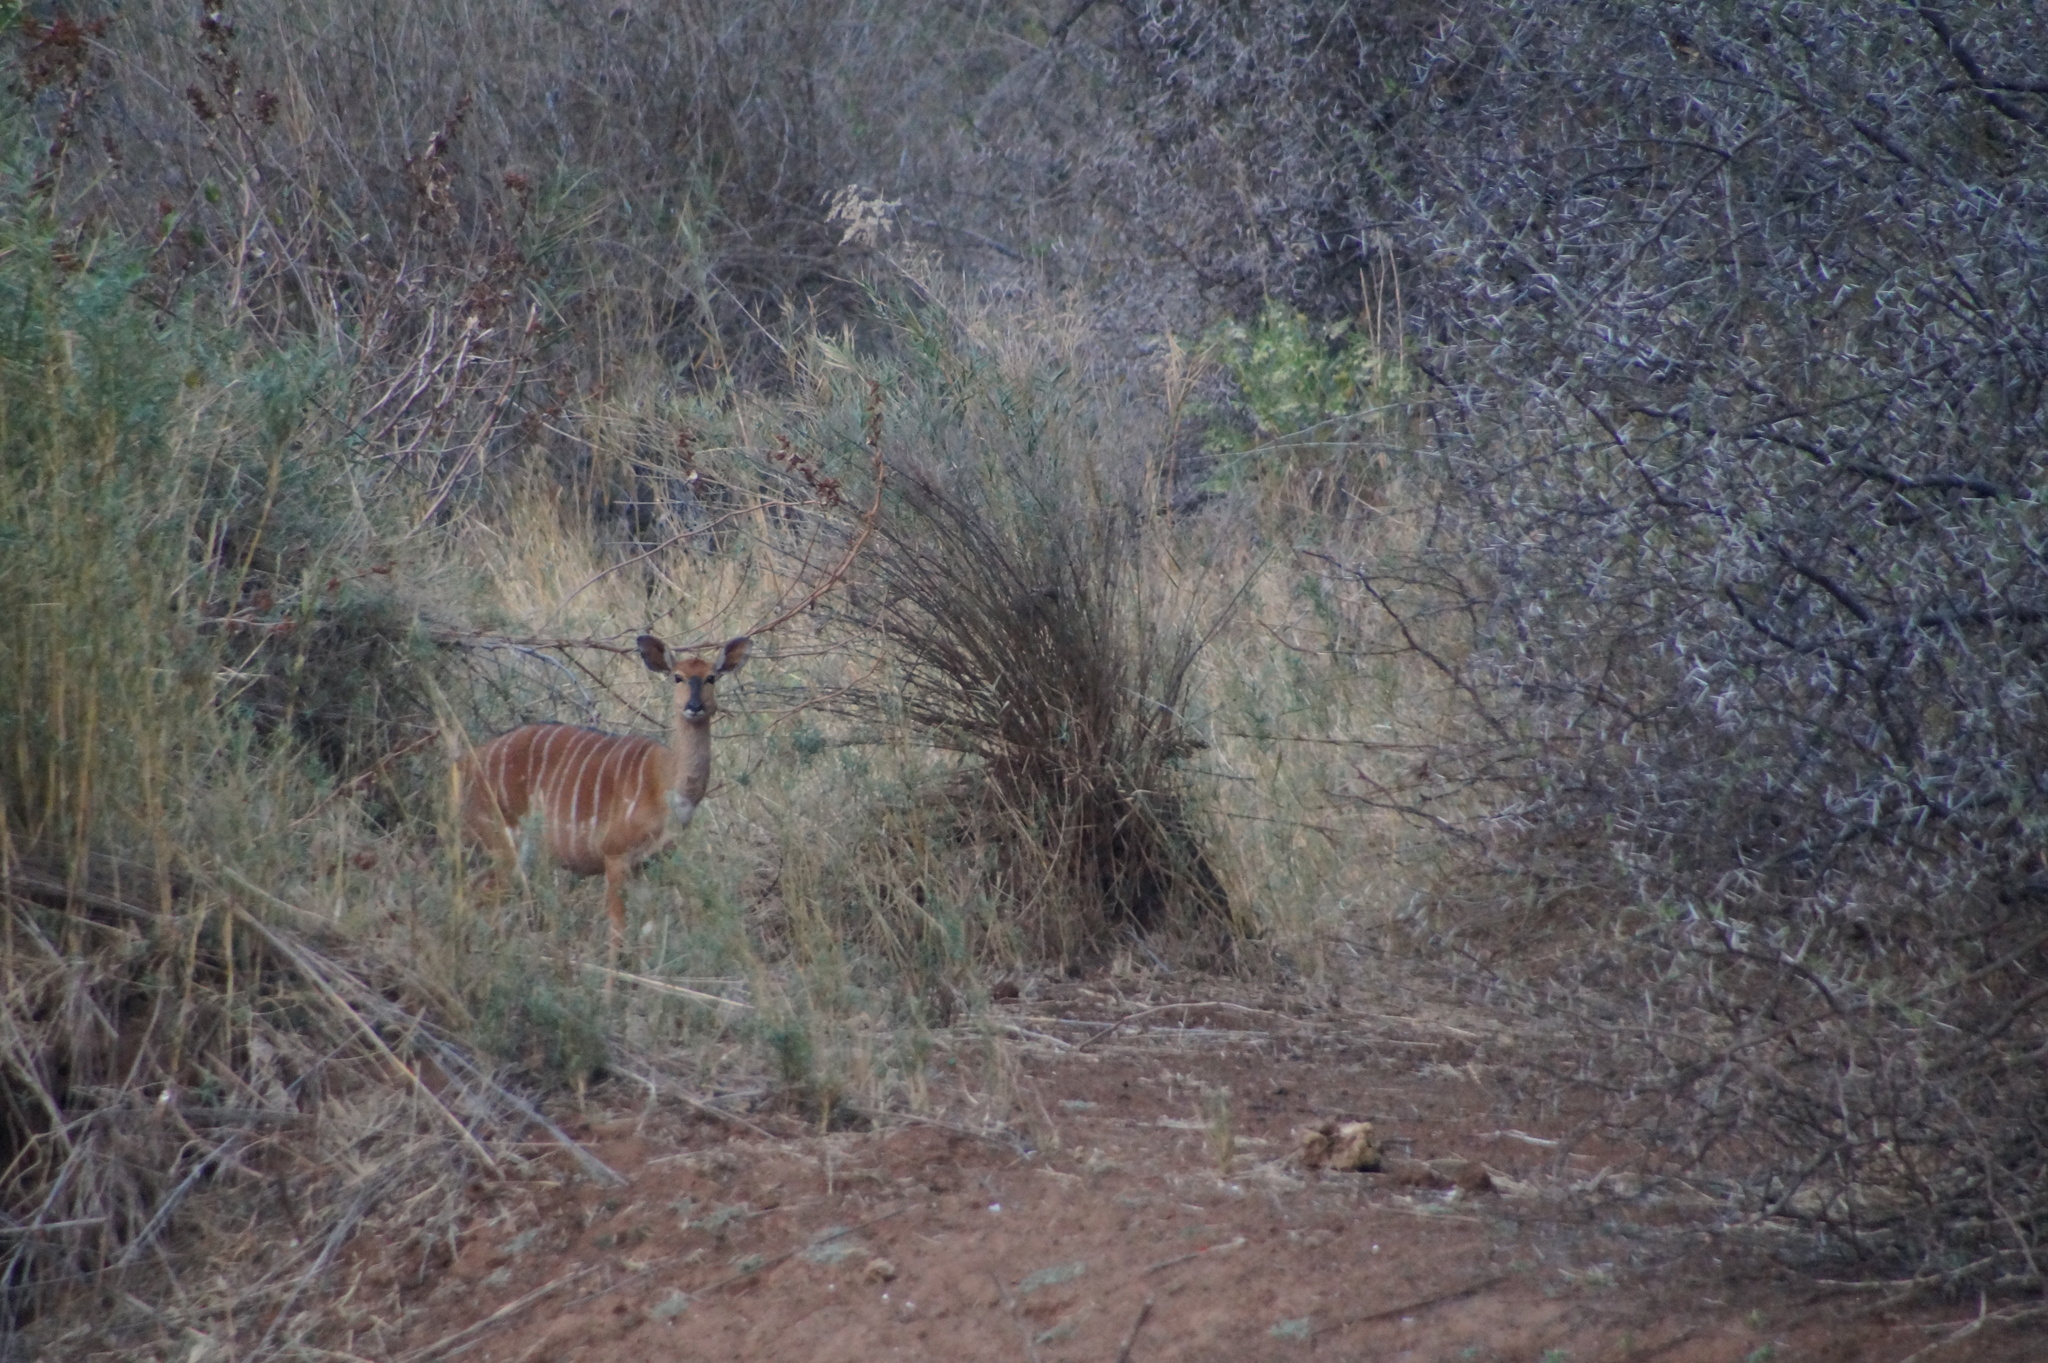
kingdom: Animalia
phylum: Chordata
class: Mammalia
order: Artiodactyla
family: Bovidae
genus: Tragelaphus
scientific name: Tragelaphus angasii
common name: Nyala
